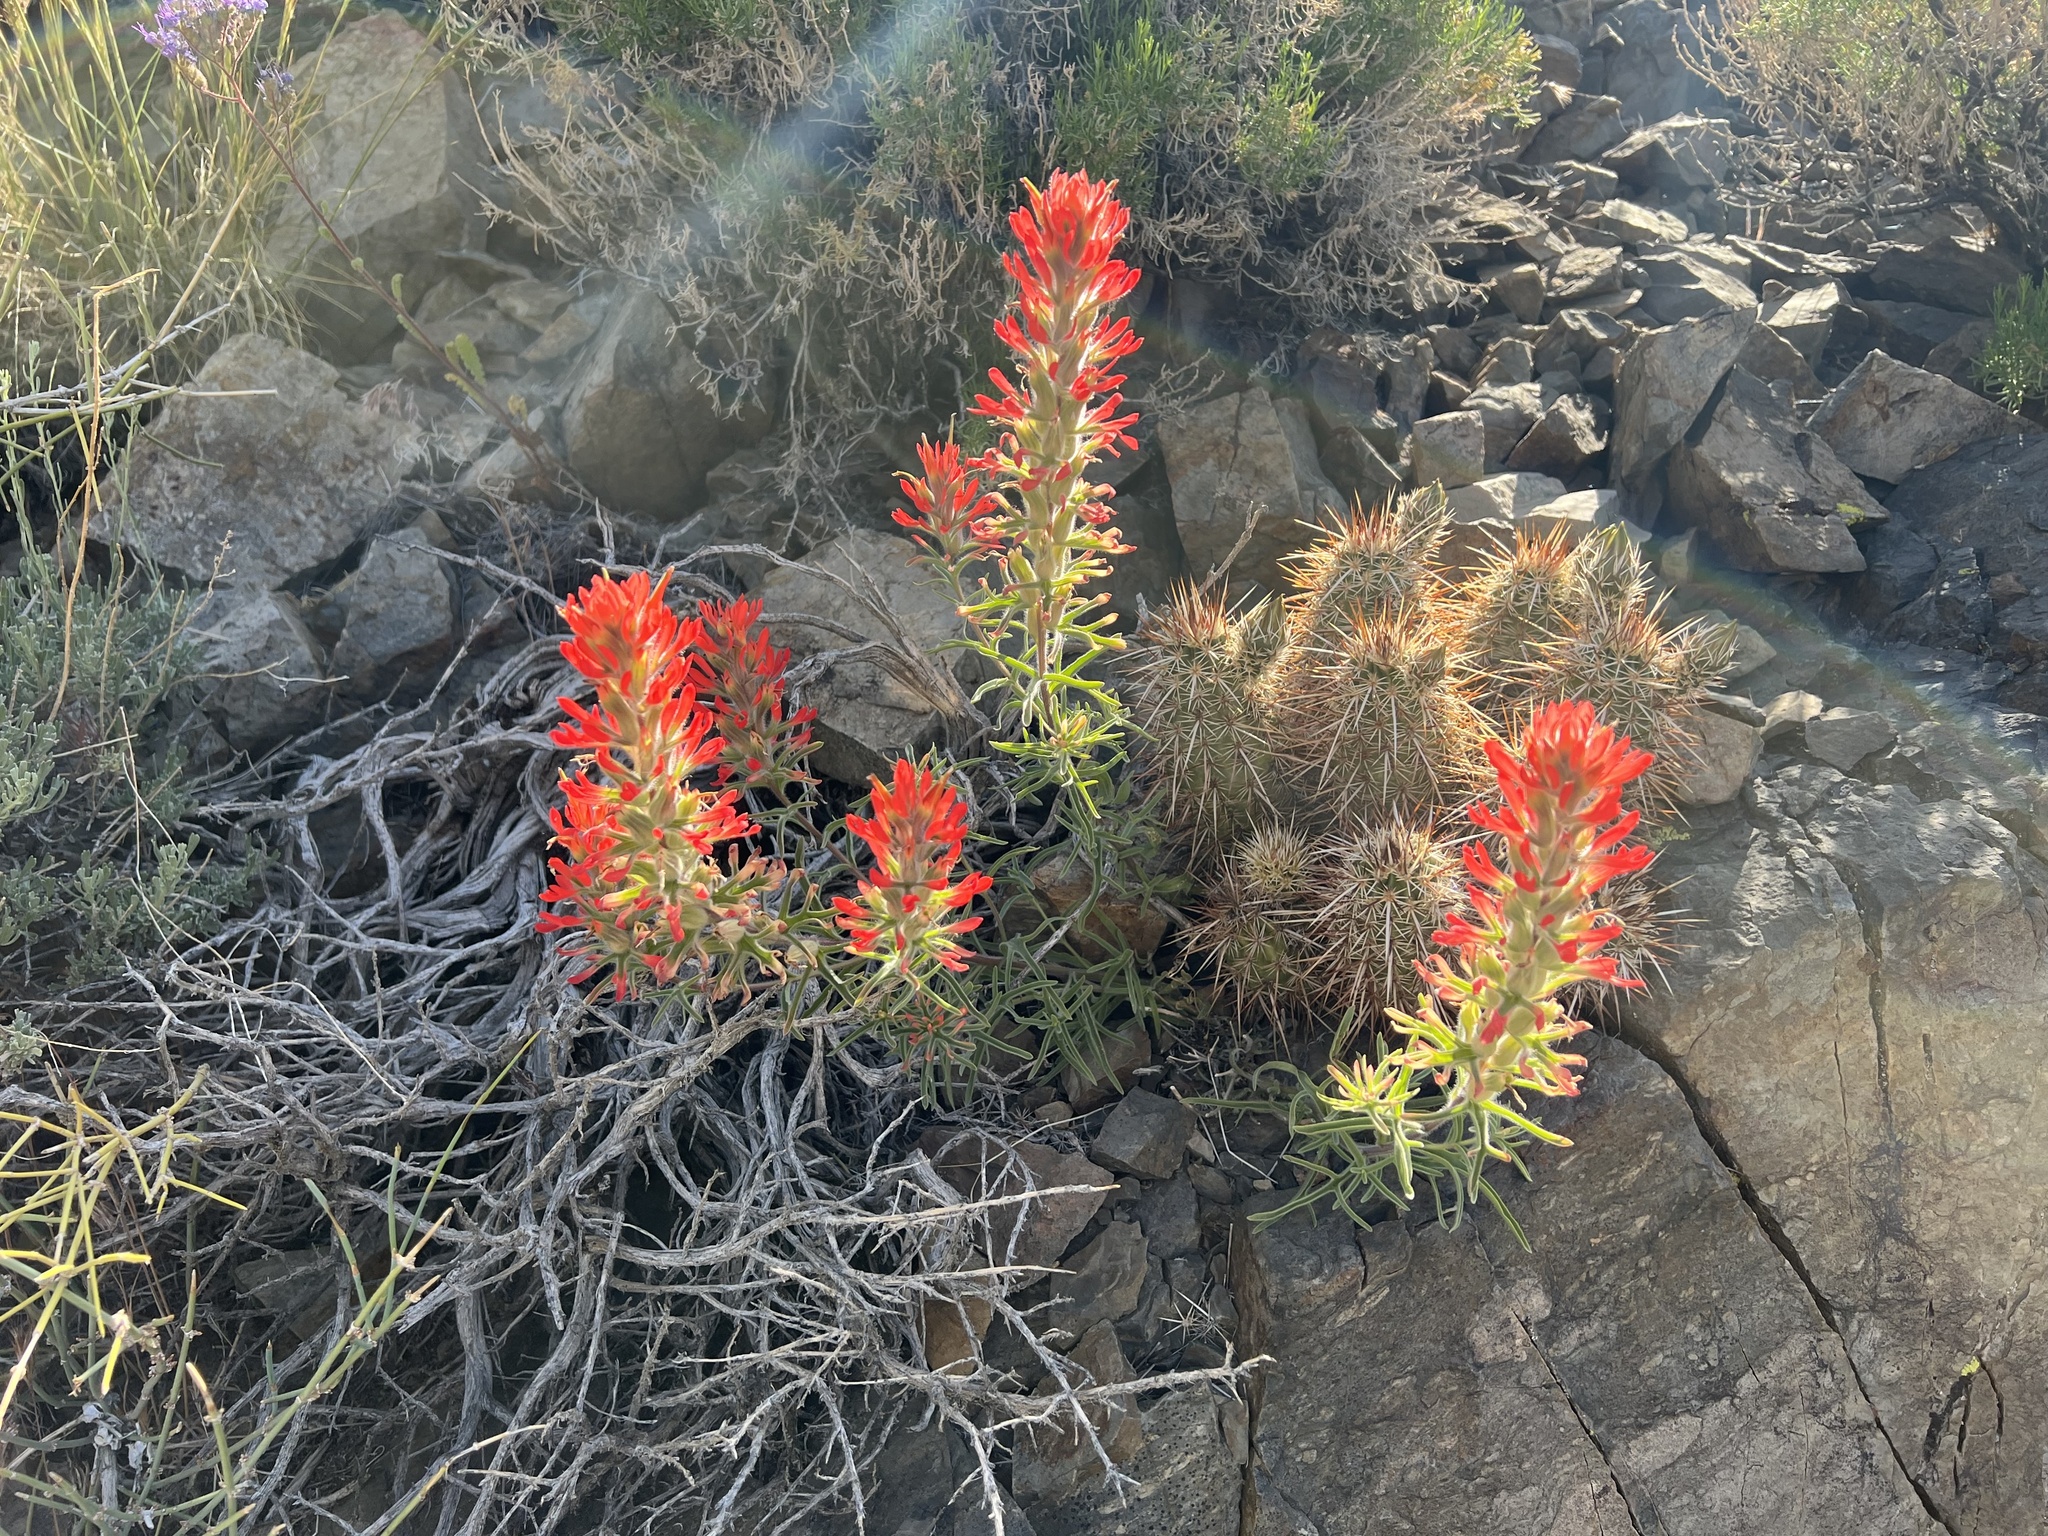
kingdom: Plantae
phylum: Tracheophyta
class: Magnoliopsida
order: Lamiales
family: Orobanchaceae
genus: Castilleja
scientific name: Castilleja chromosa
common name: Desert paintbrush
